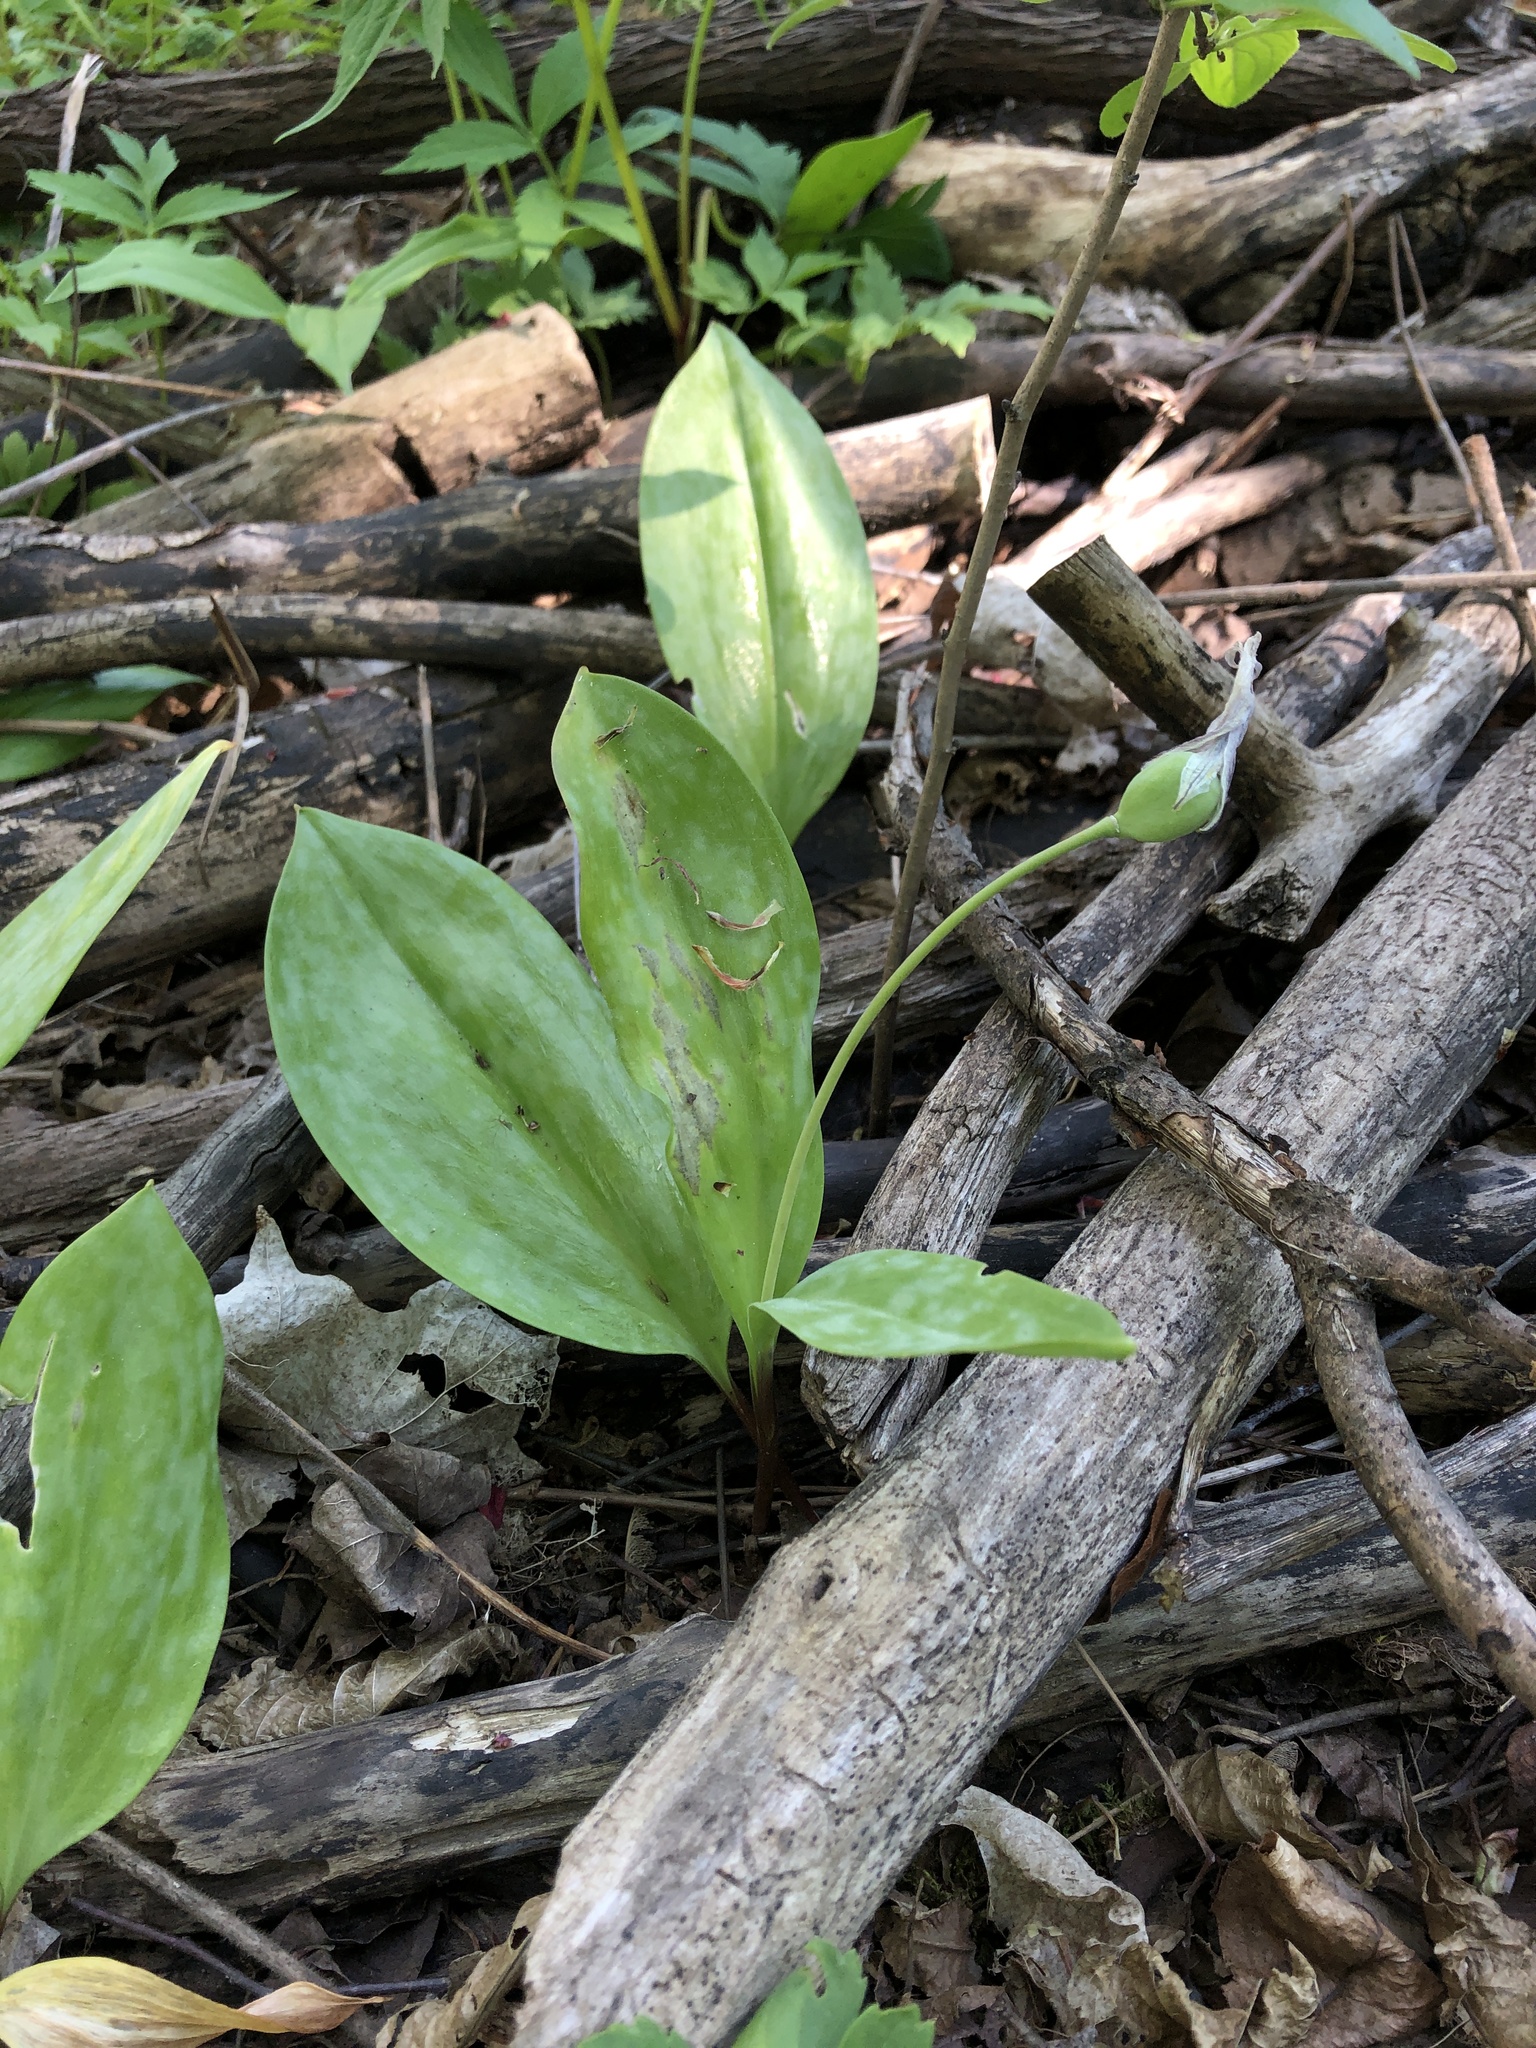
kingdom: Plantae
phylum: Tracheophyta
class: Liliopsida
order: Liliales
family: Liliaceae
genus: Erythronium
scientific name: Erythronium americanum
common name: Yellow adder's-tongue
